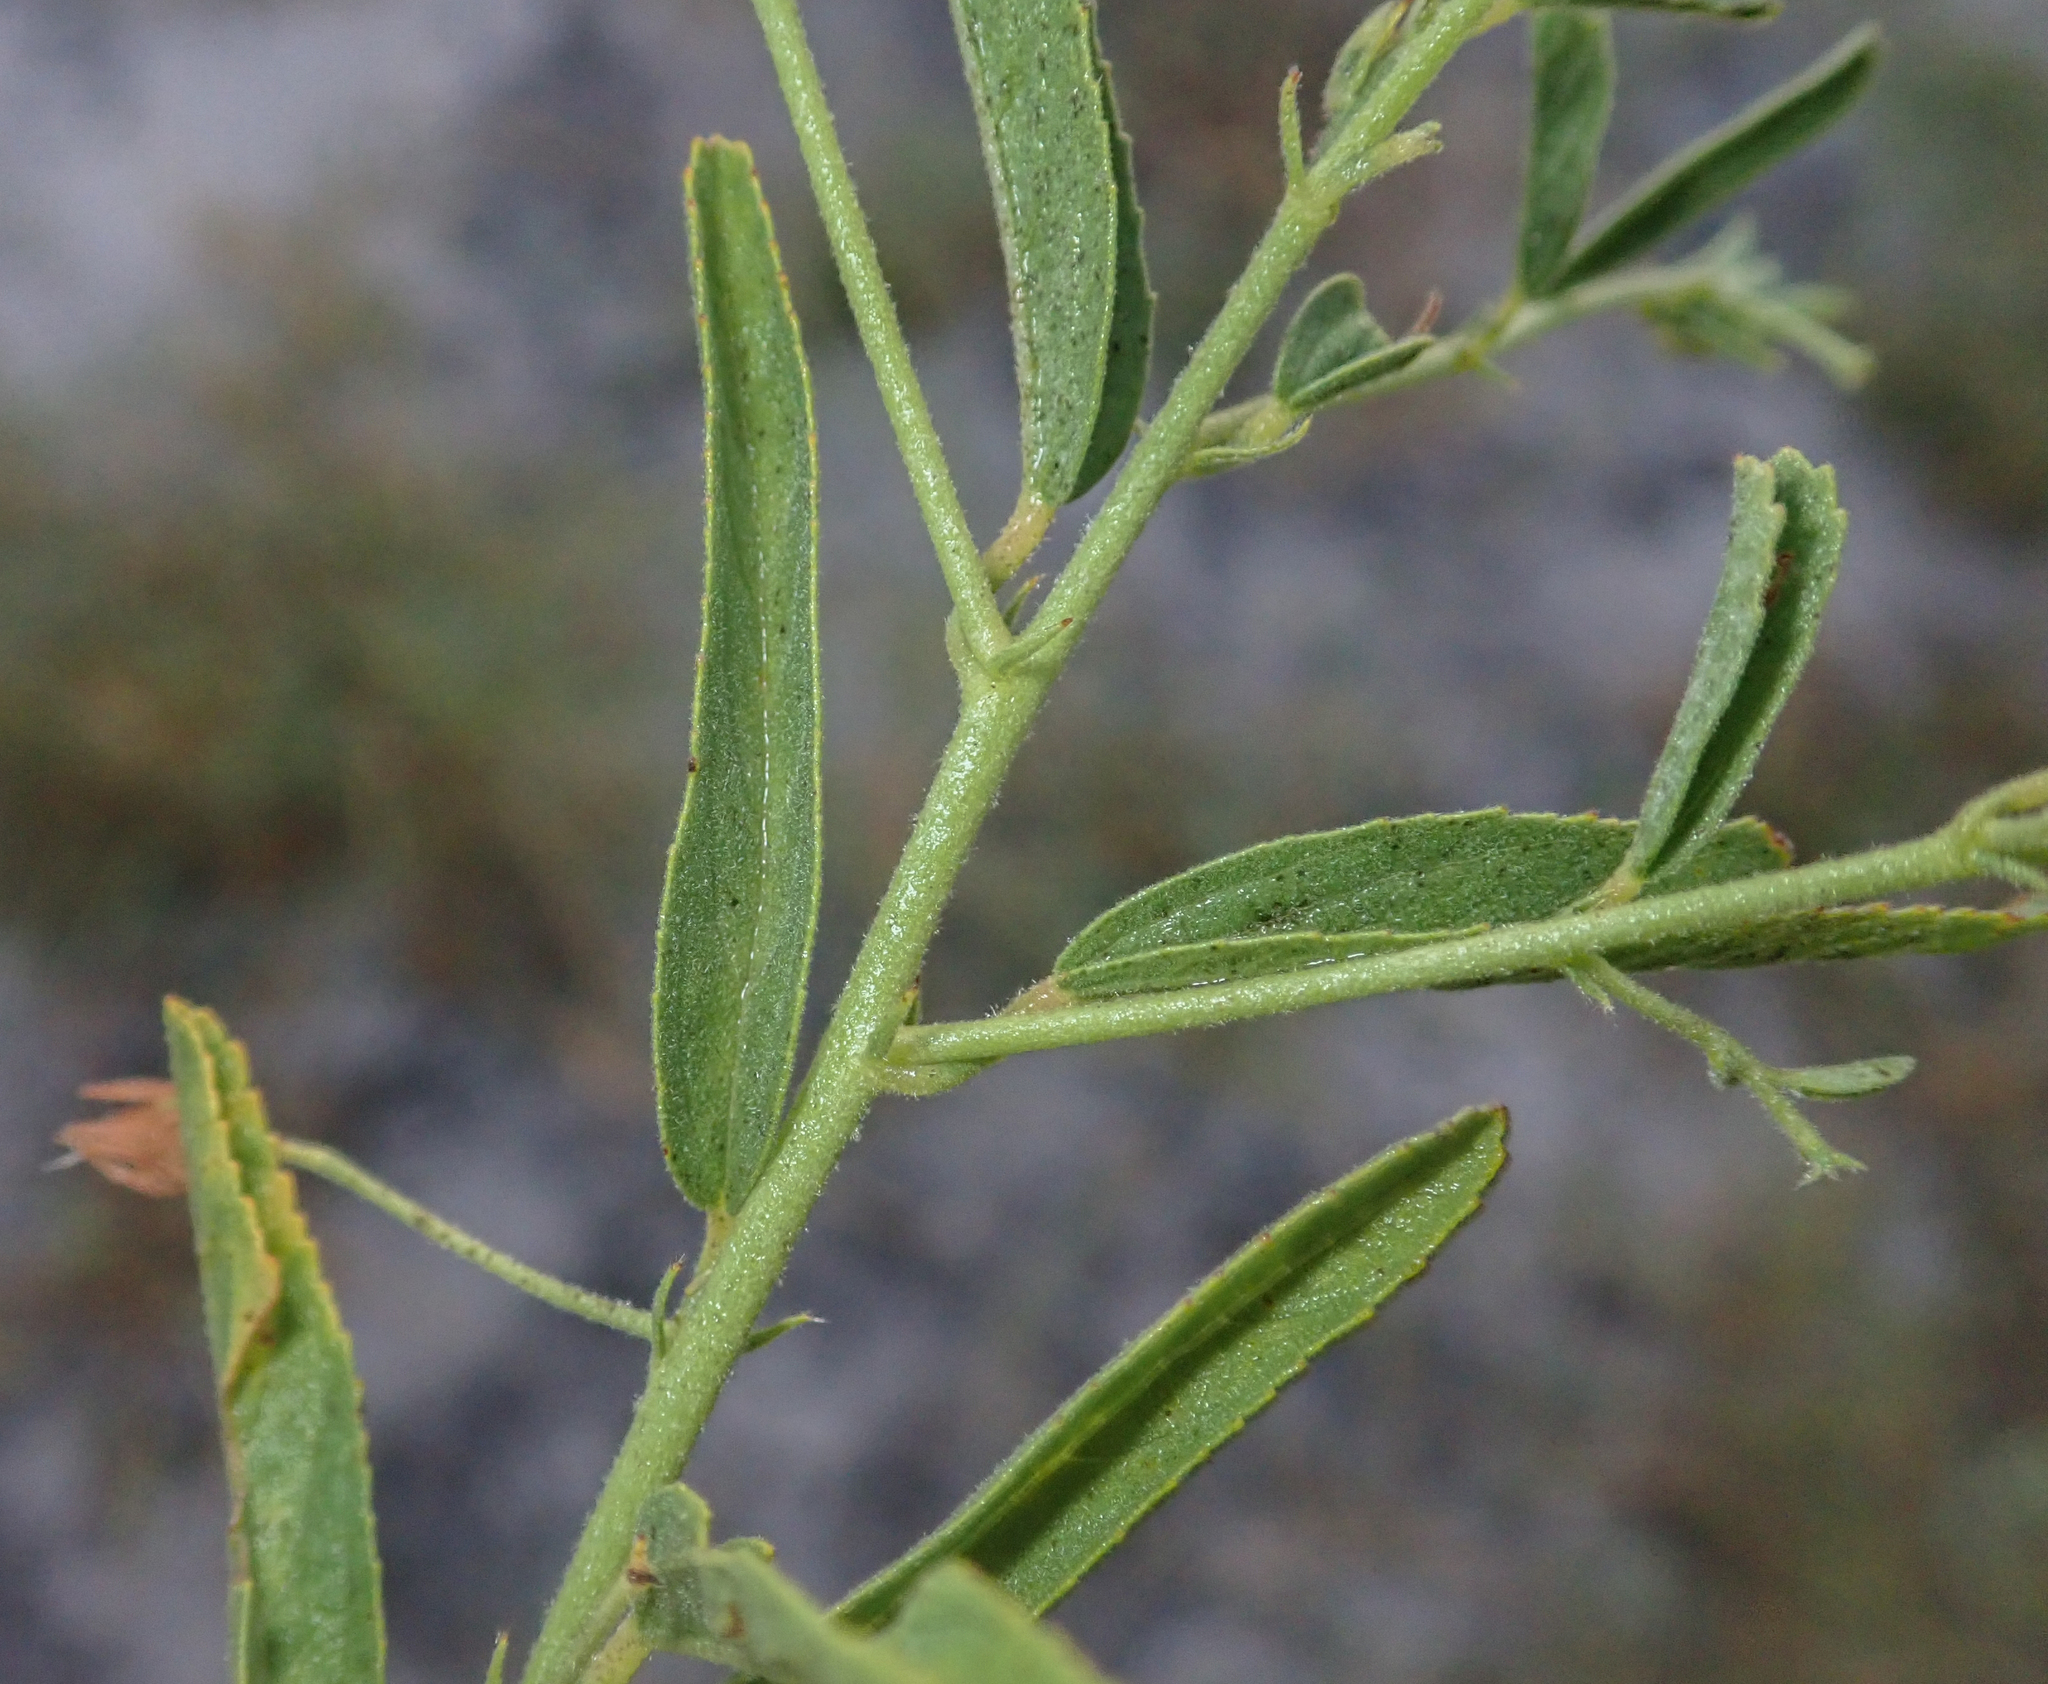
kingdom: Plantae
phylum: Tracheophyta
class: Magnoliopsida
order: Malvales
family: Malvaceae
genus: Hermannia
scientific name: Hermannia eenii
